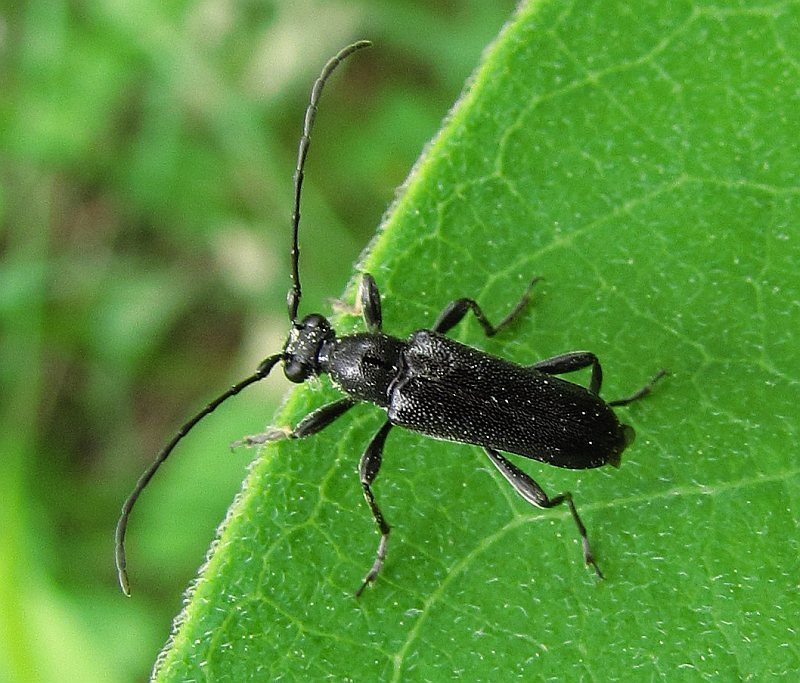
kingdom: Animalia
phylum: Arthropoda
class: Insecta
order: Coleoptera
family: Cerambycidae
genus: Anoplodera
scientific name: Anoplodera pubera
